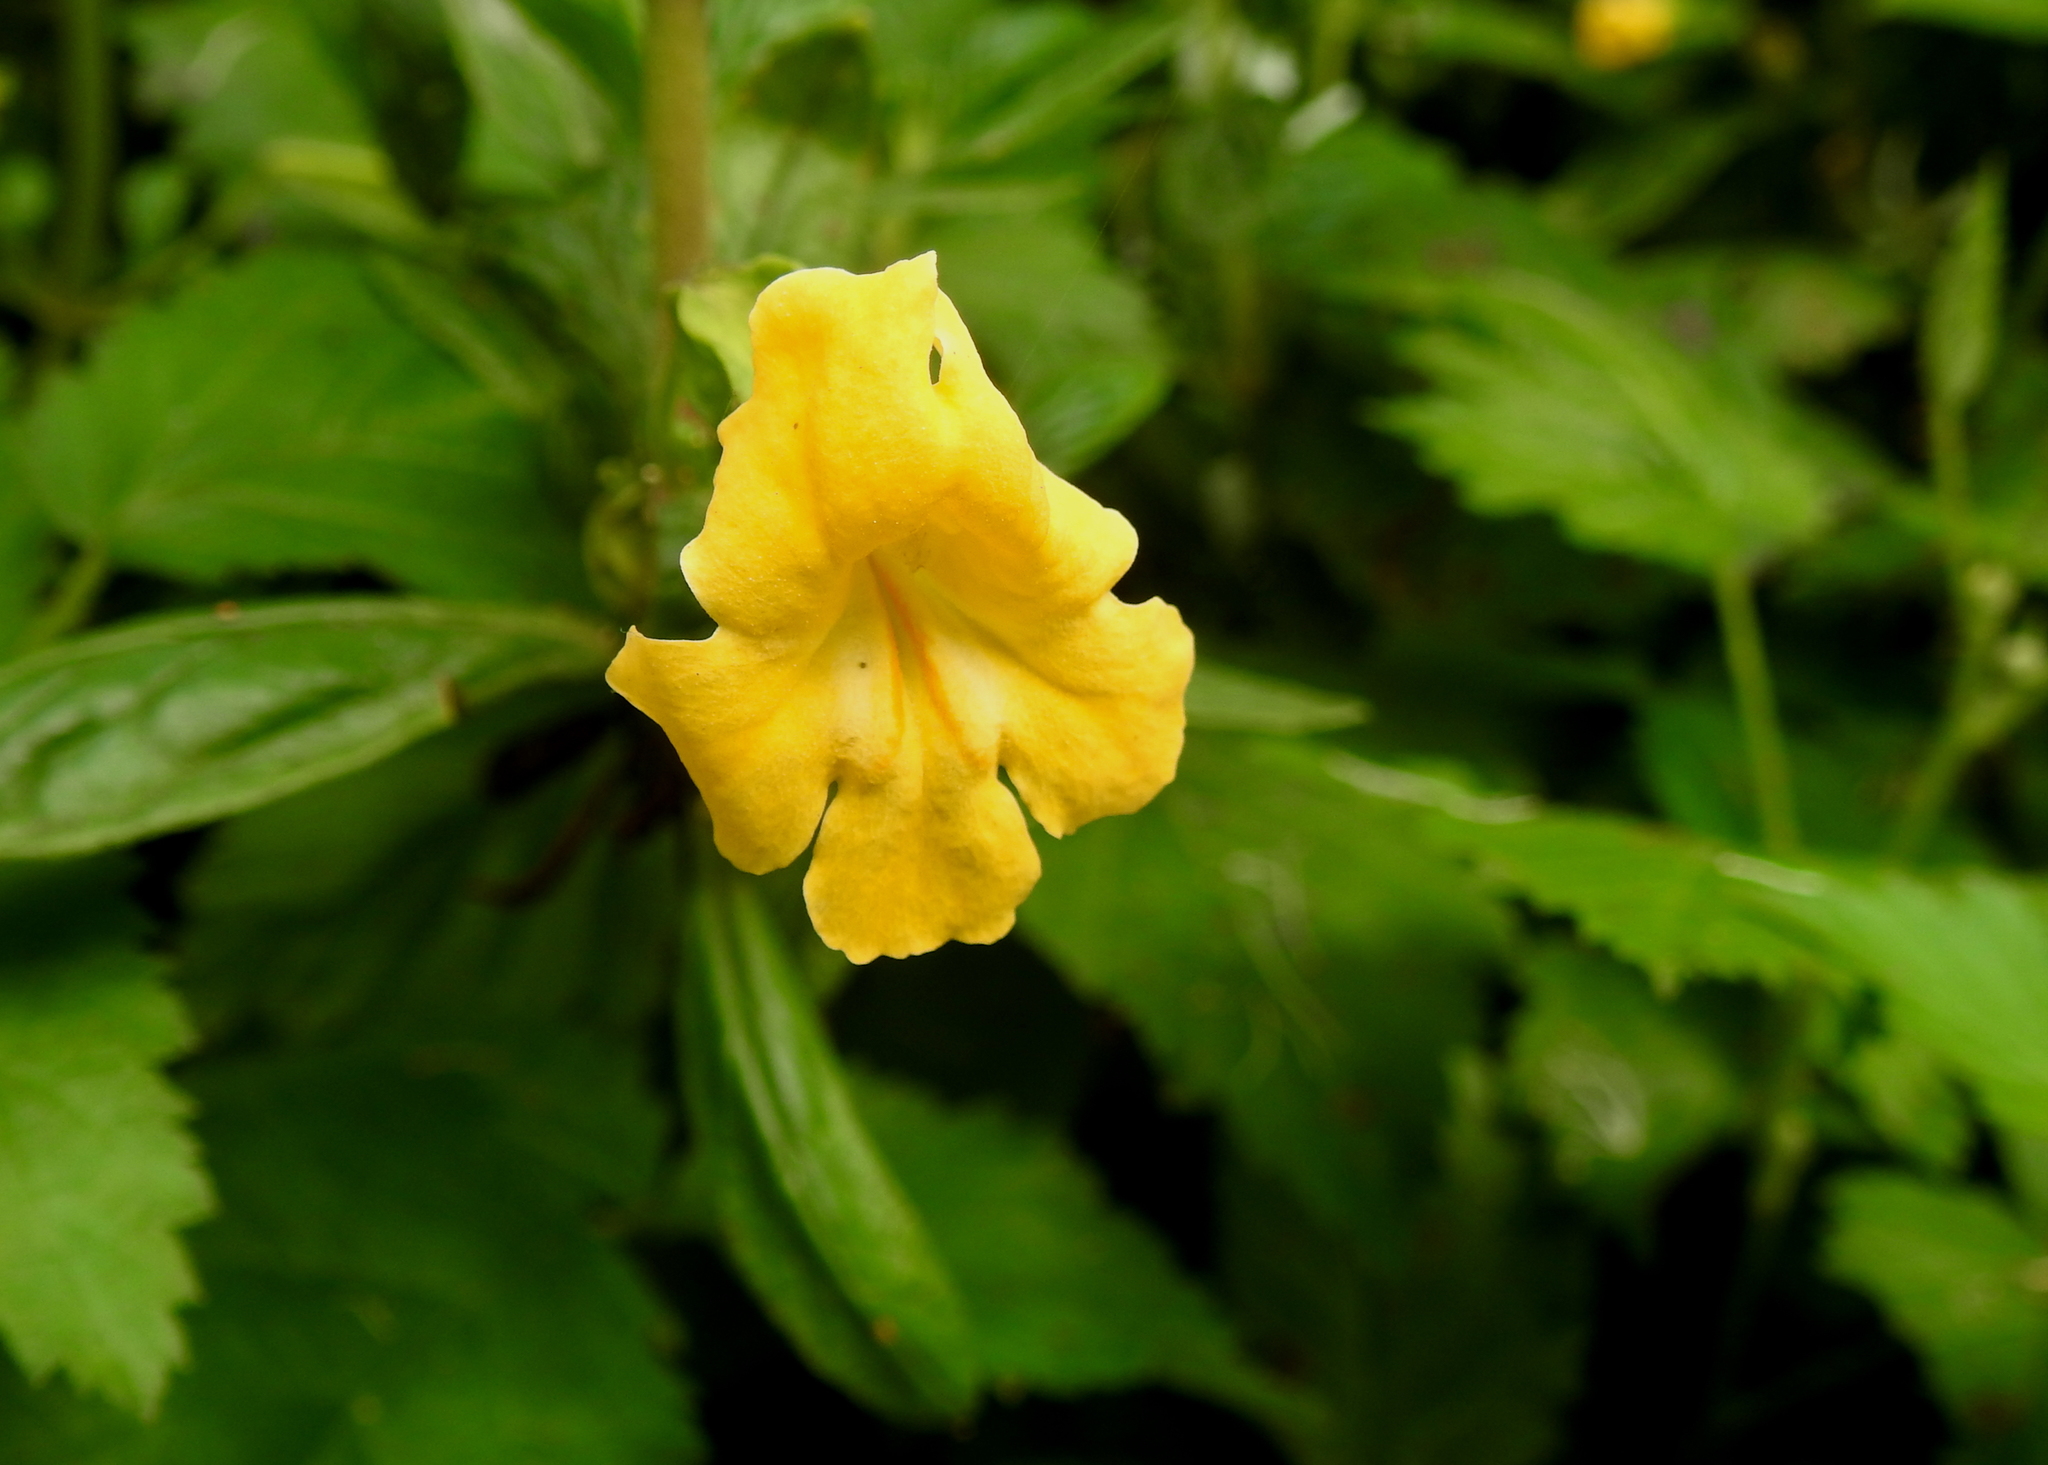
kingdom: Plantae
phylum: Tracheophyta
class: Magnoliopsida
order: Lamiales
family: Phrymaceae
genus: Diplacus
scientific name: Diplacus aurantiacus
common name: Bush monkey-flower
